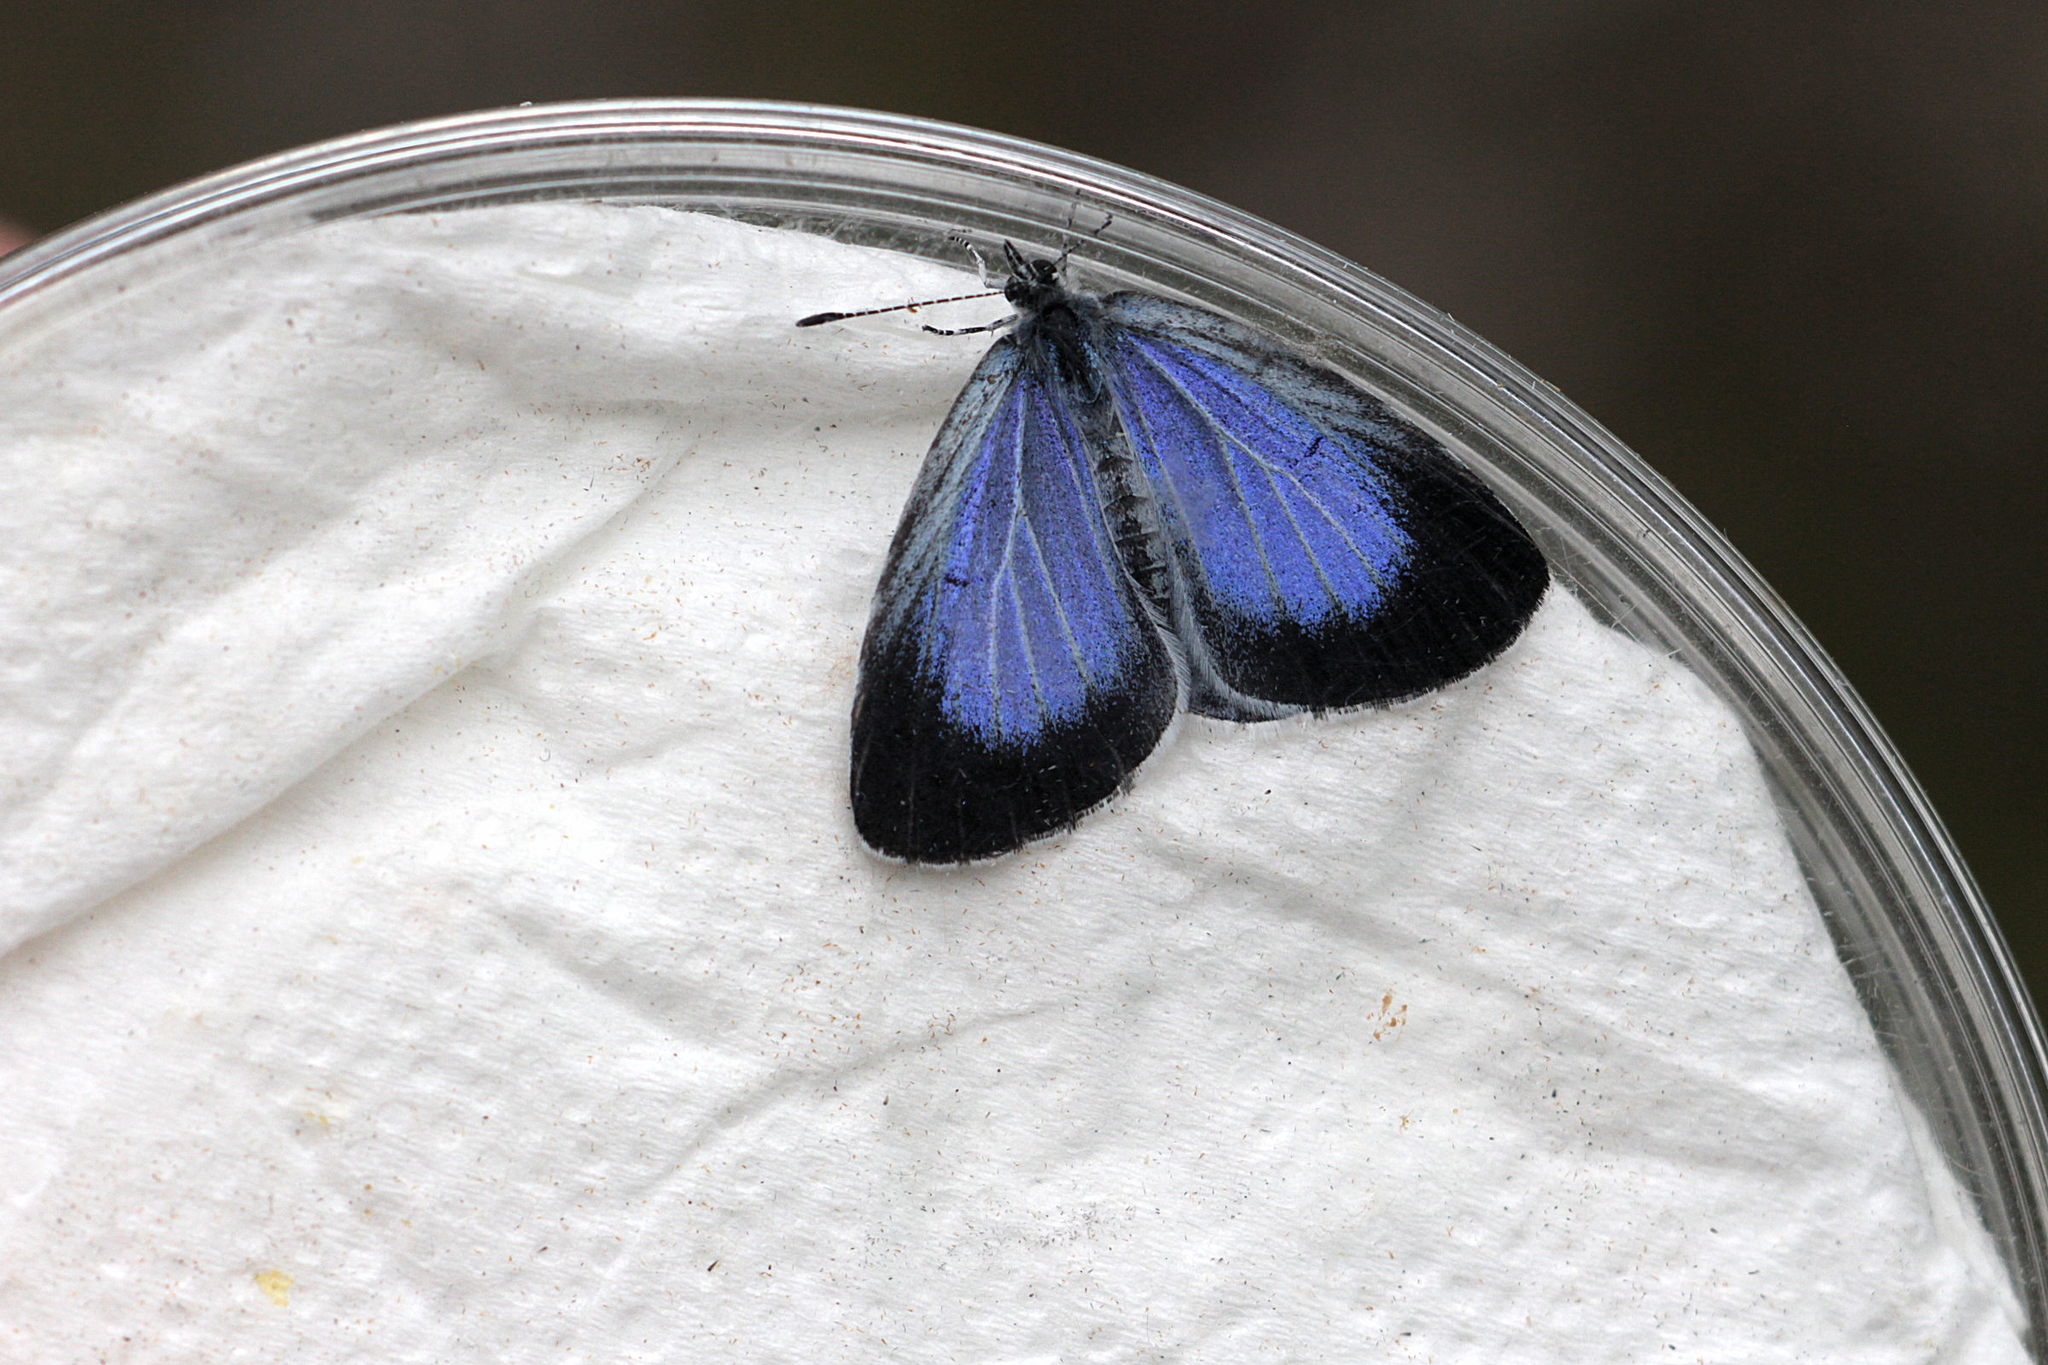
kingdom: Animalia
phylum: Arthropoda
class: Insecta
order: Lepidoptera
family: Lycaenidae
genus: Celastrina
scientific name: Celastrina argiolus
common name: Holly blue
